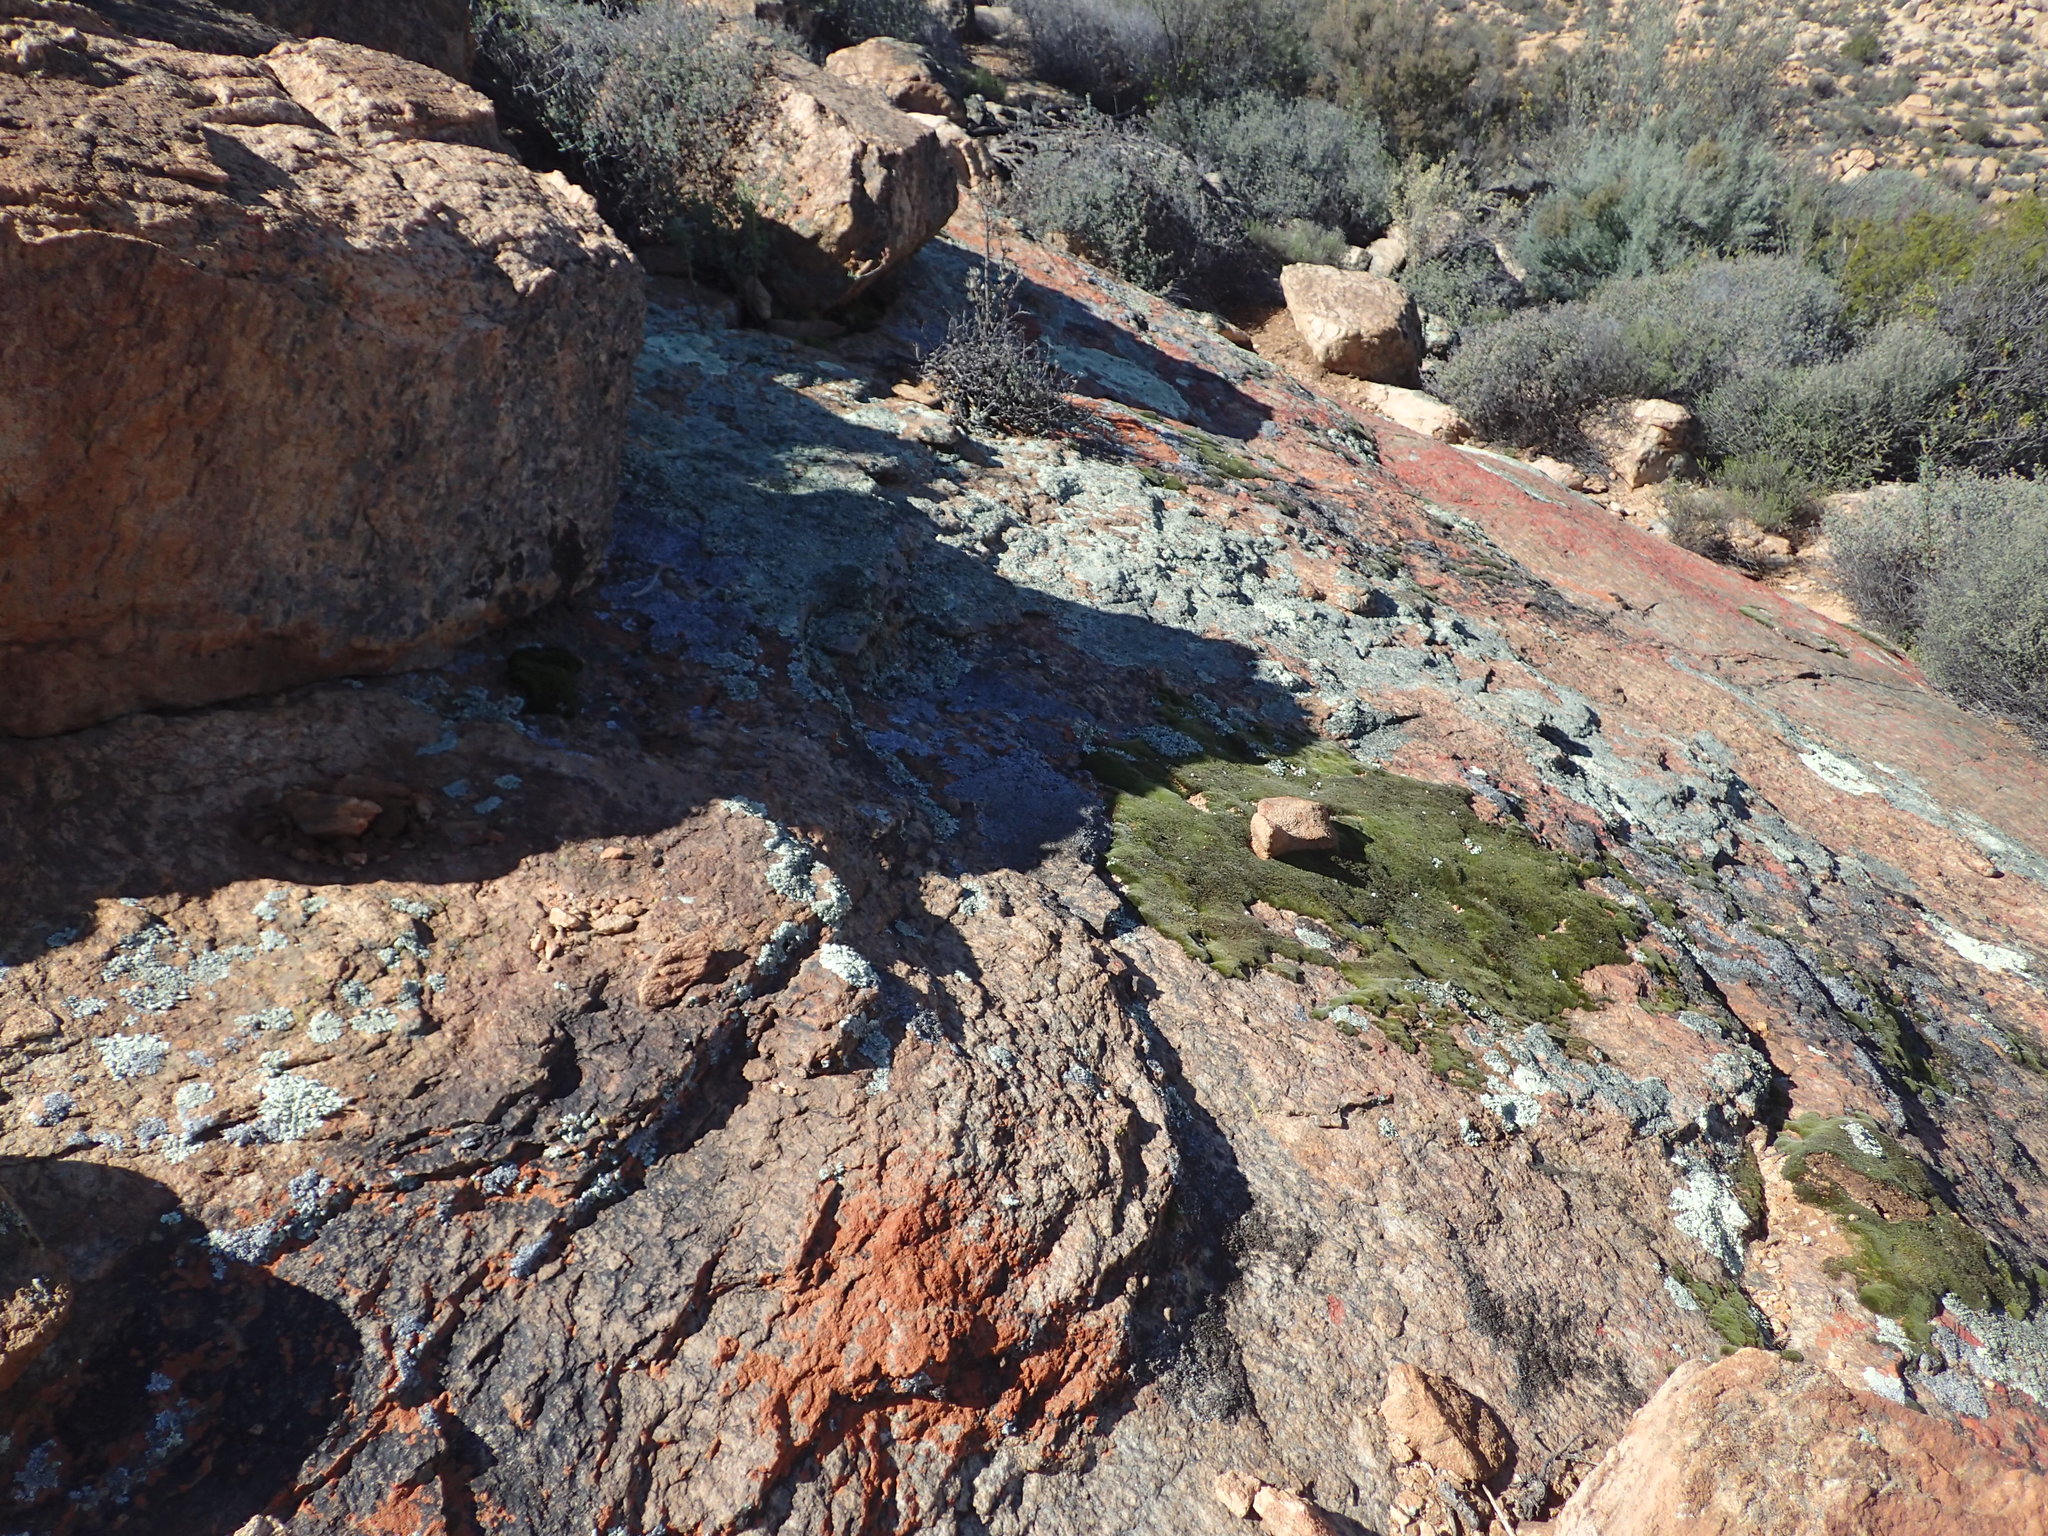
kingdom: Plantae
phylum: Bryophyta
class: Bryopsida
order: Grimmiales
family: Grimmiaceae
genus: Grimmia
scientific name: Grimmia laevigata
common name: Hoary grimmia
